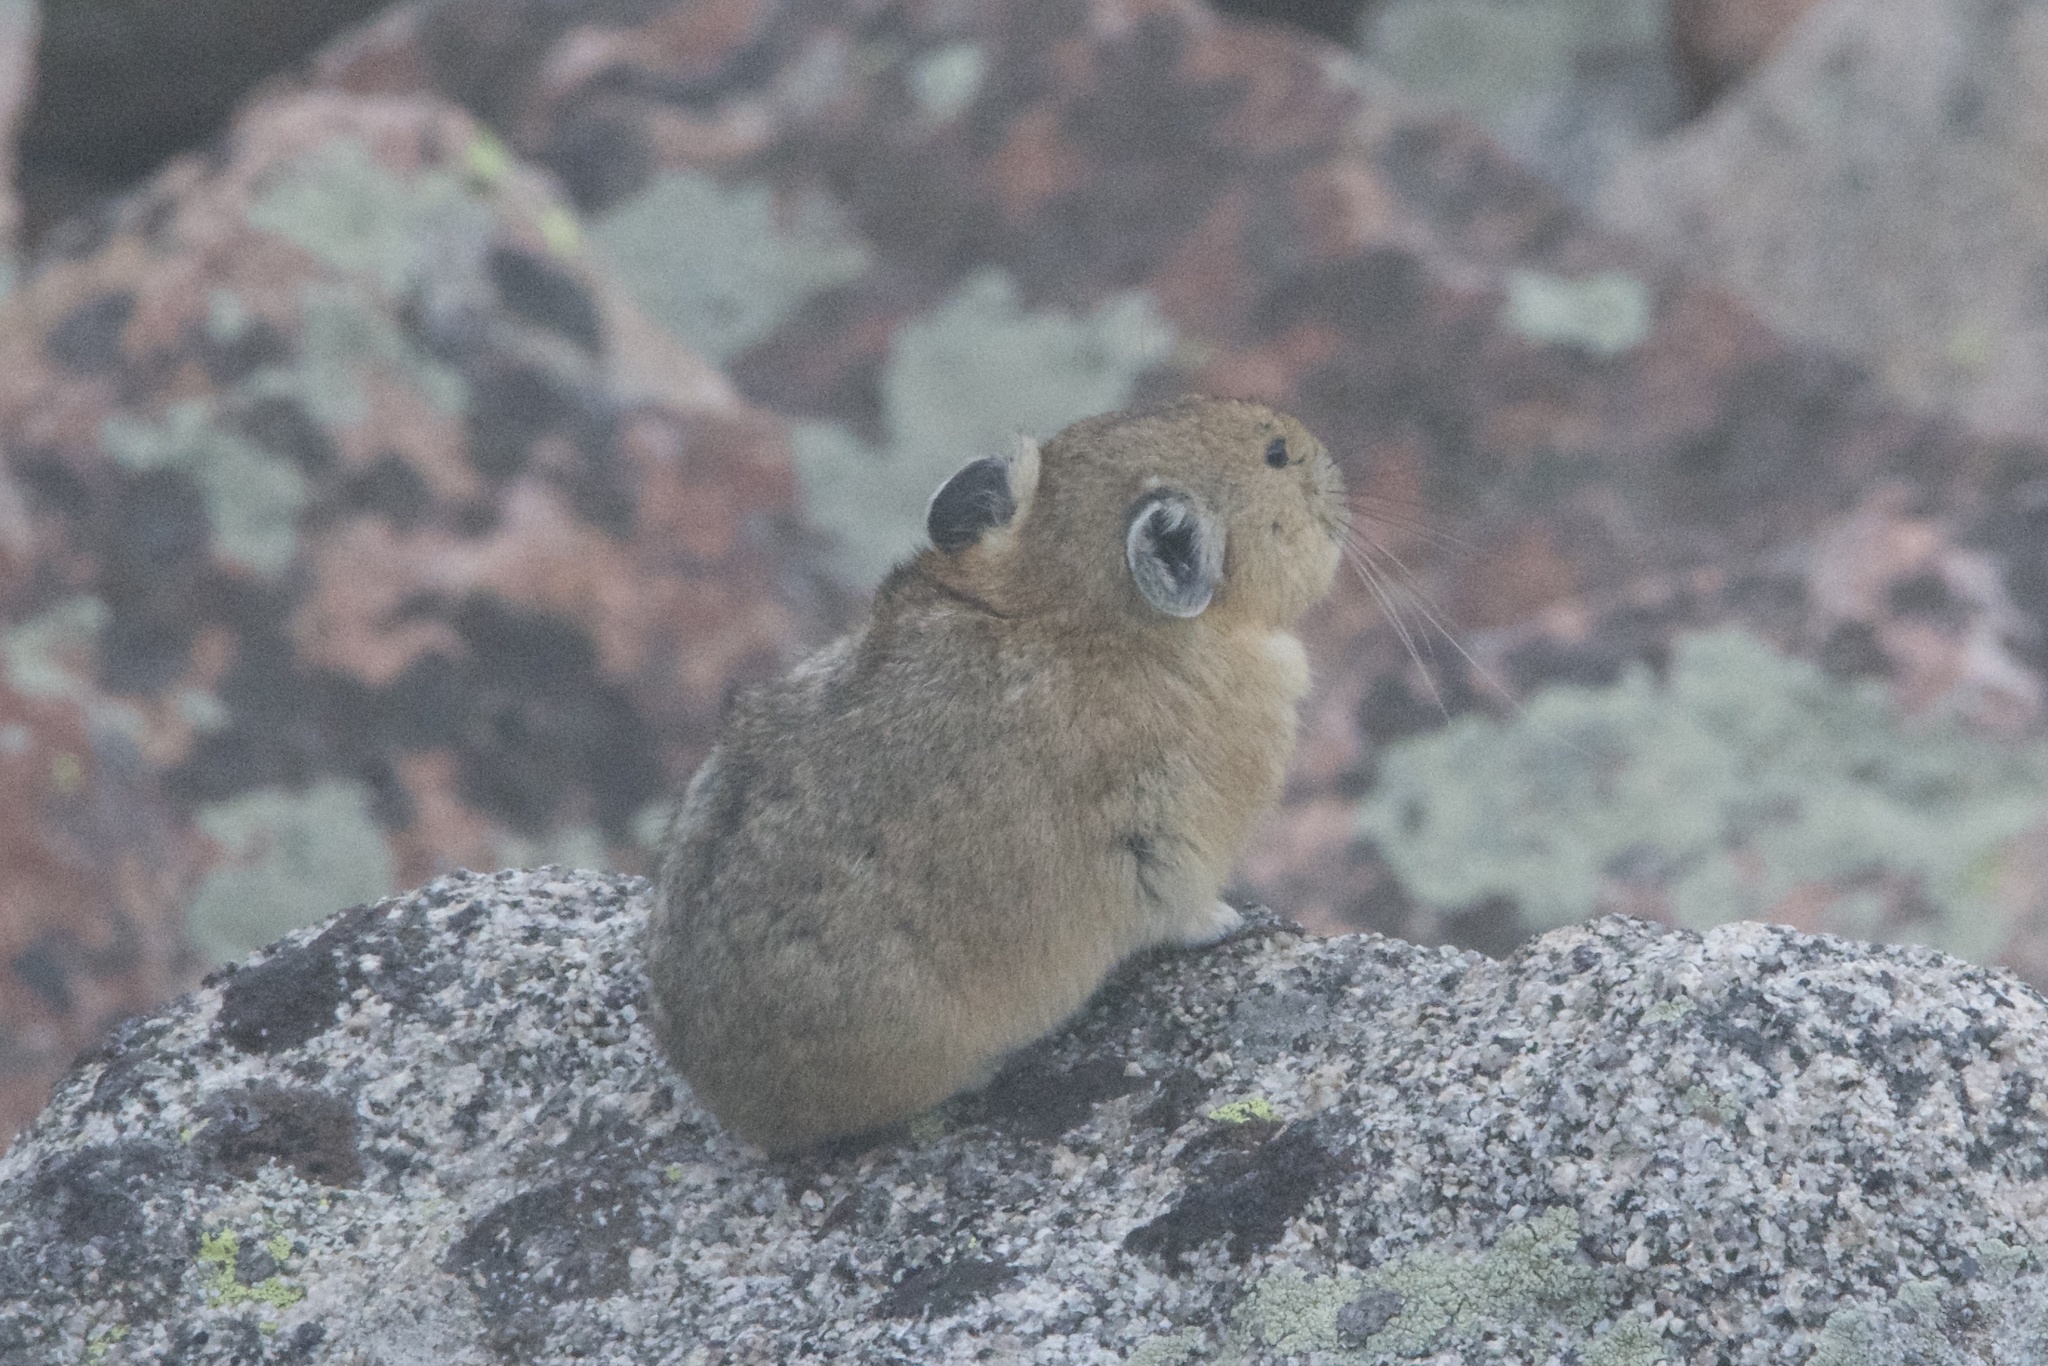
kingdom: Animalia
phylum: Chordata
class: Mammalia
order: Lagomorpha
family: Ochotonidae
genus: Ochotona
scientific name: Ochotona princeps
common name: American pika
